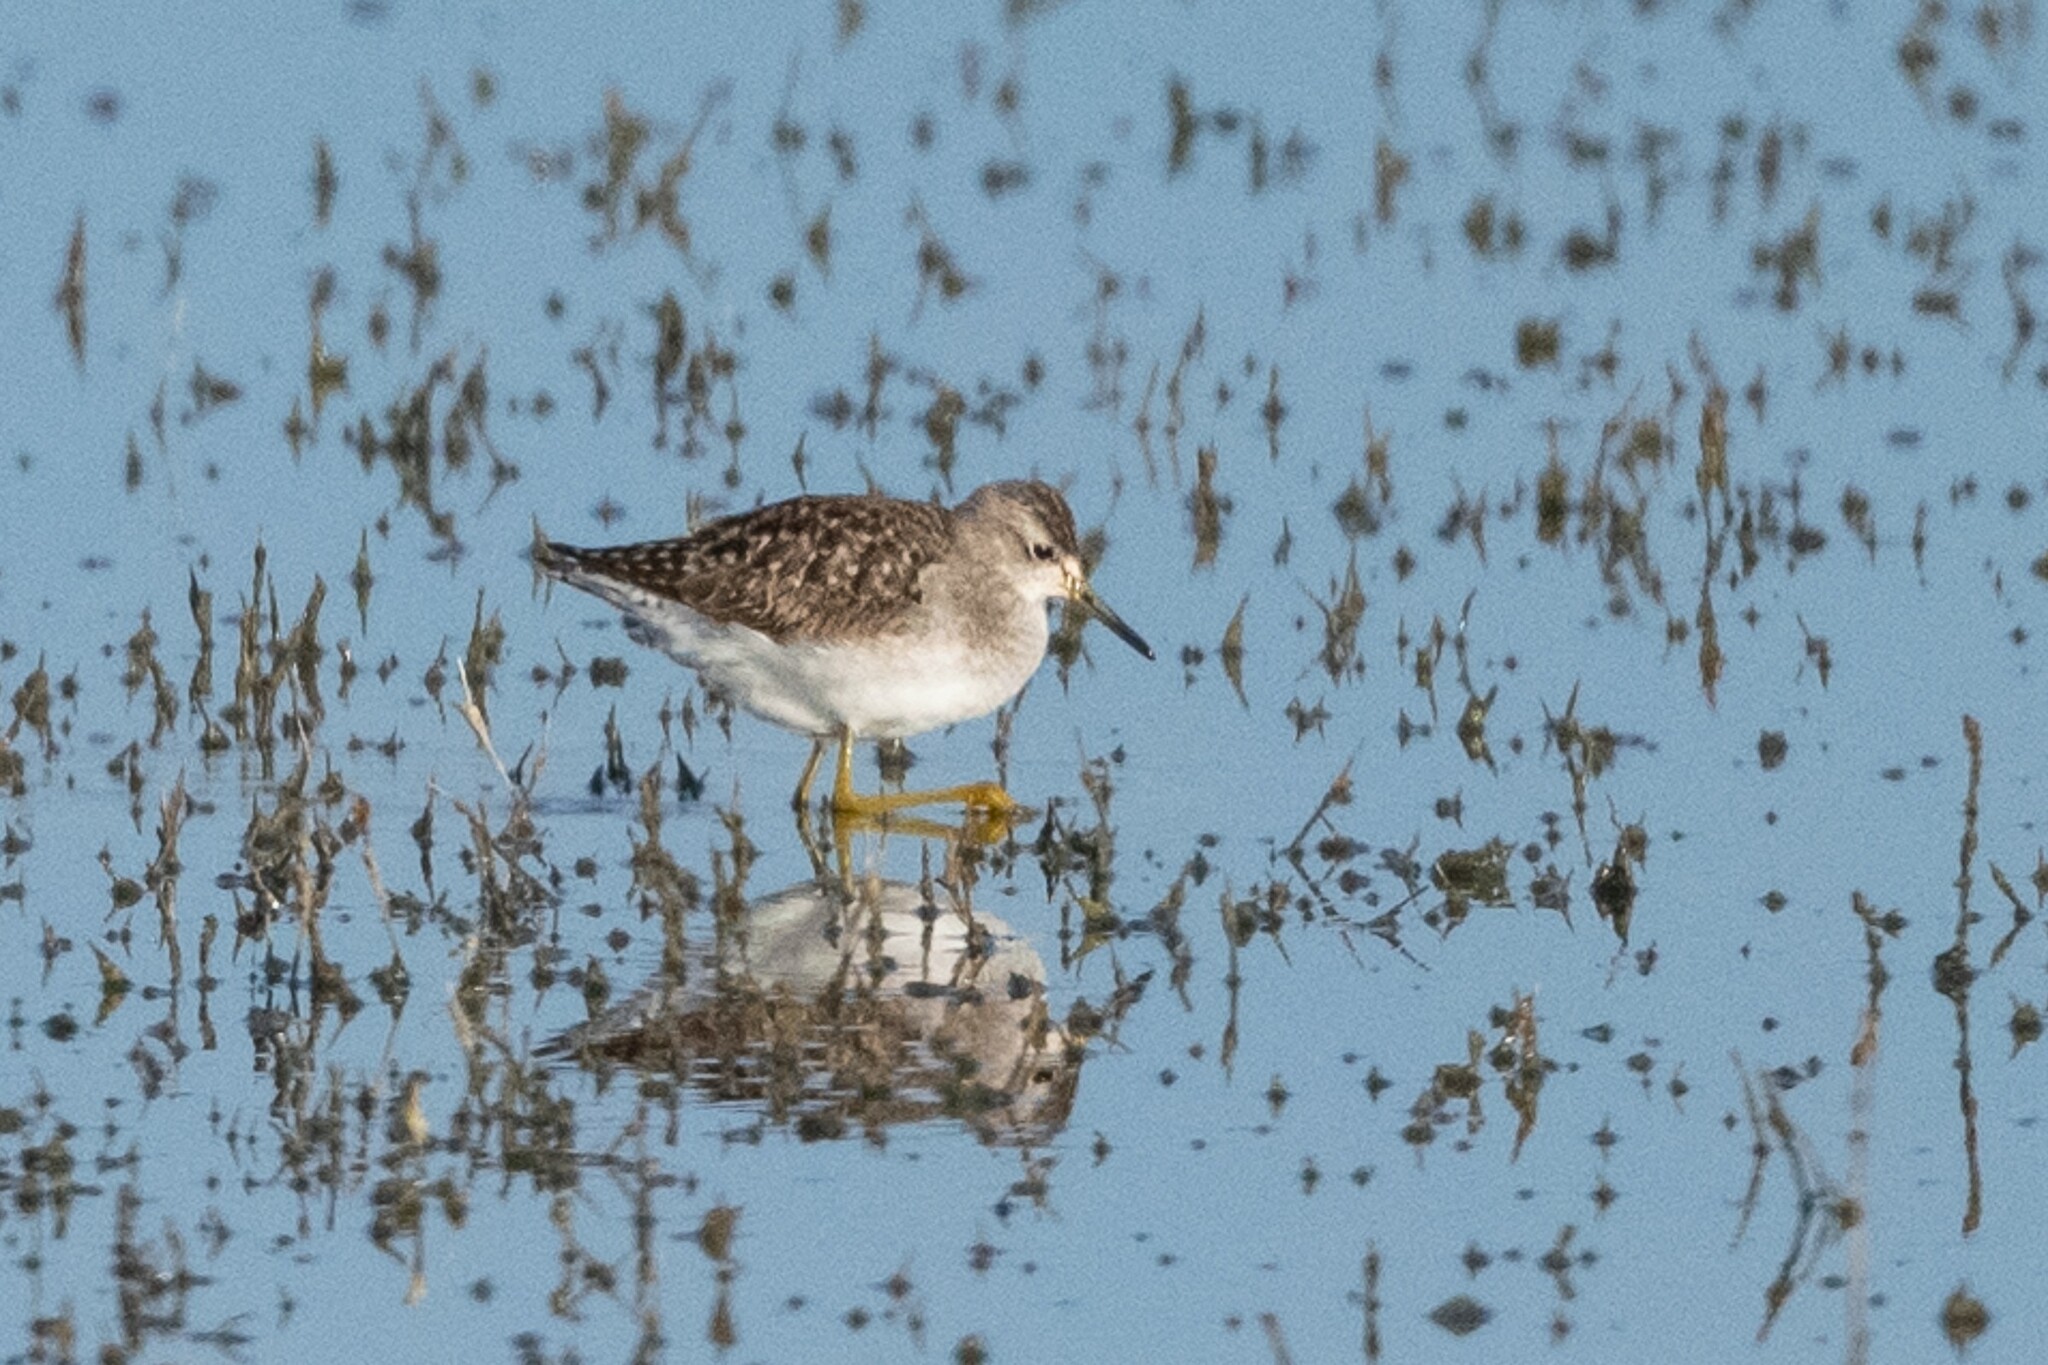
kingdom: Animalia
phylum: Chordata
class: Aves
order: Charadriiformes
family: Scolopacidae
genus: Tringa
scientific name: Tringa glareola
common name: Wood sandpiper
